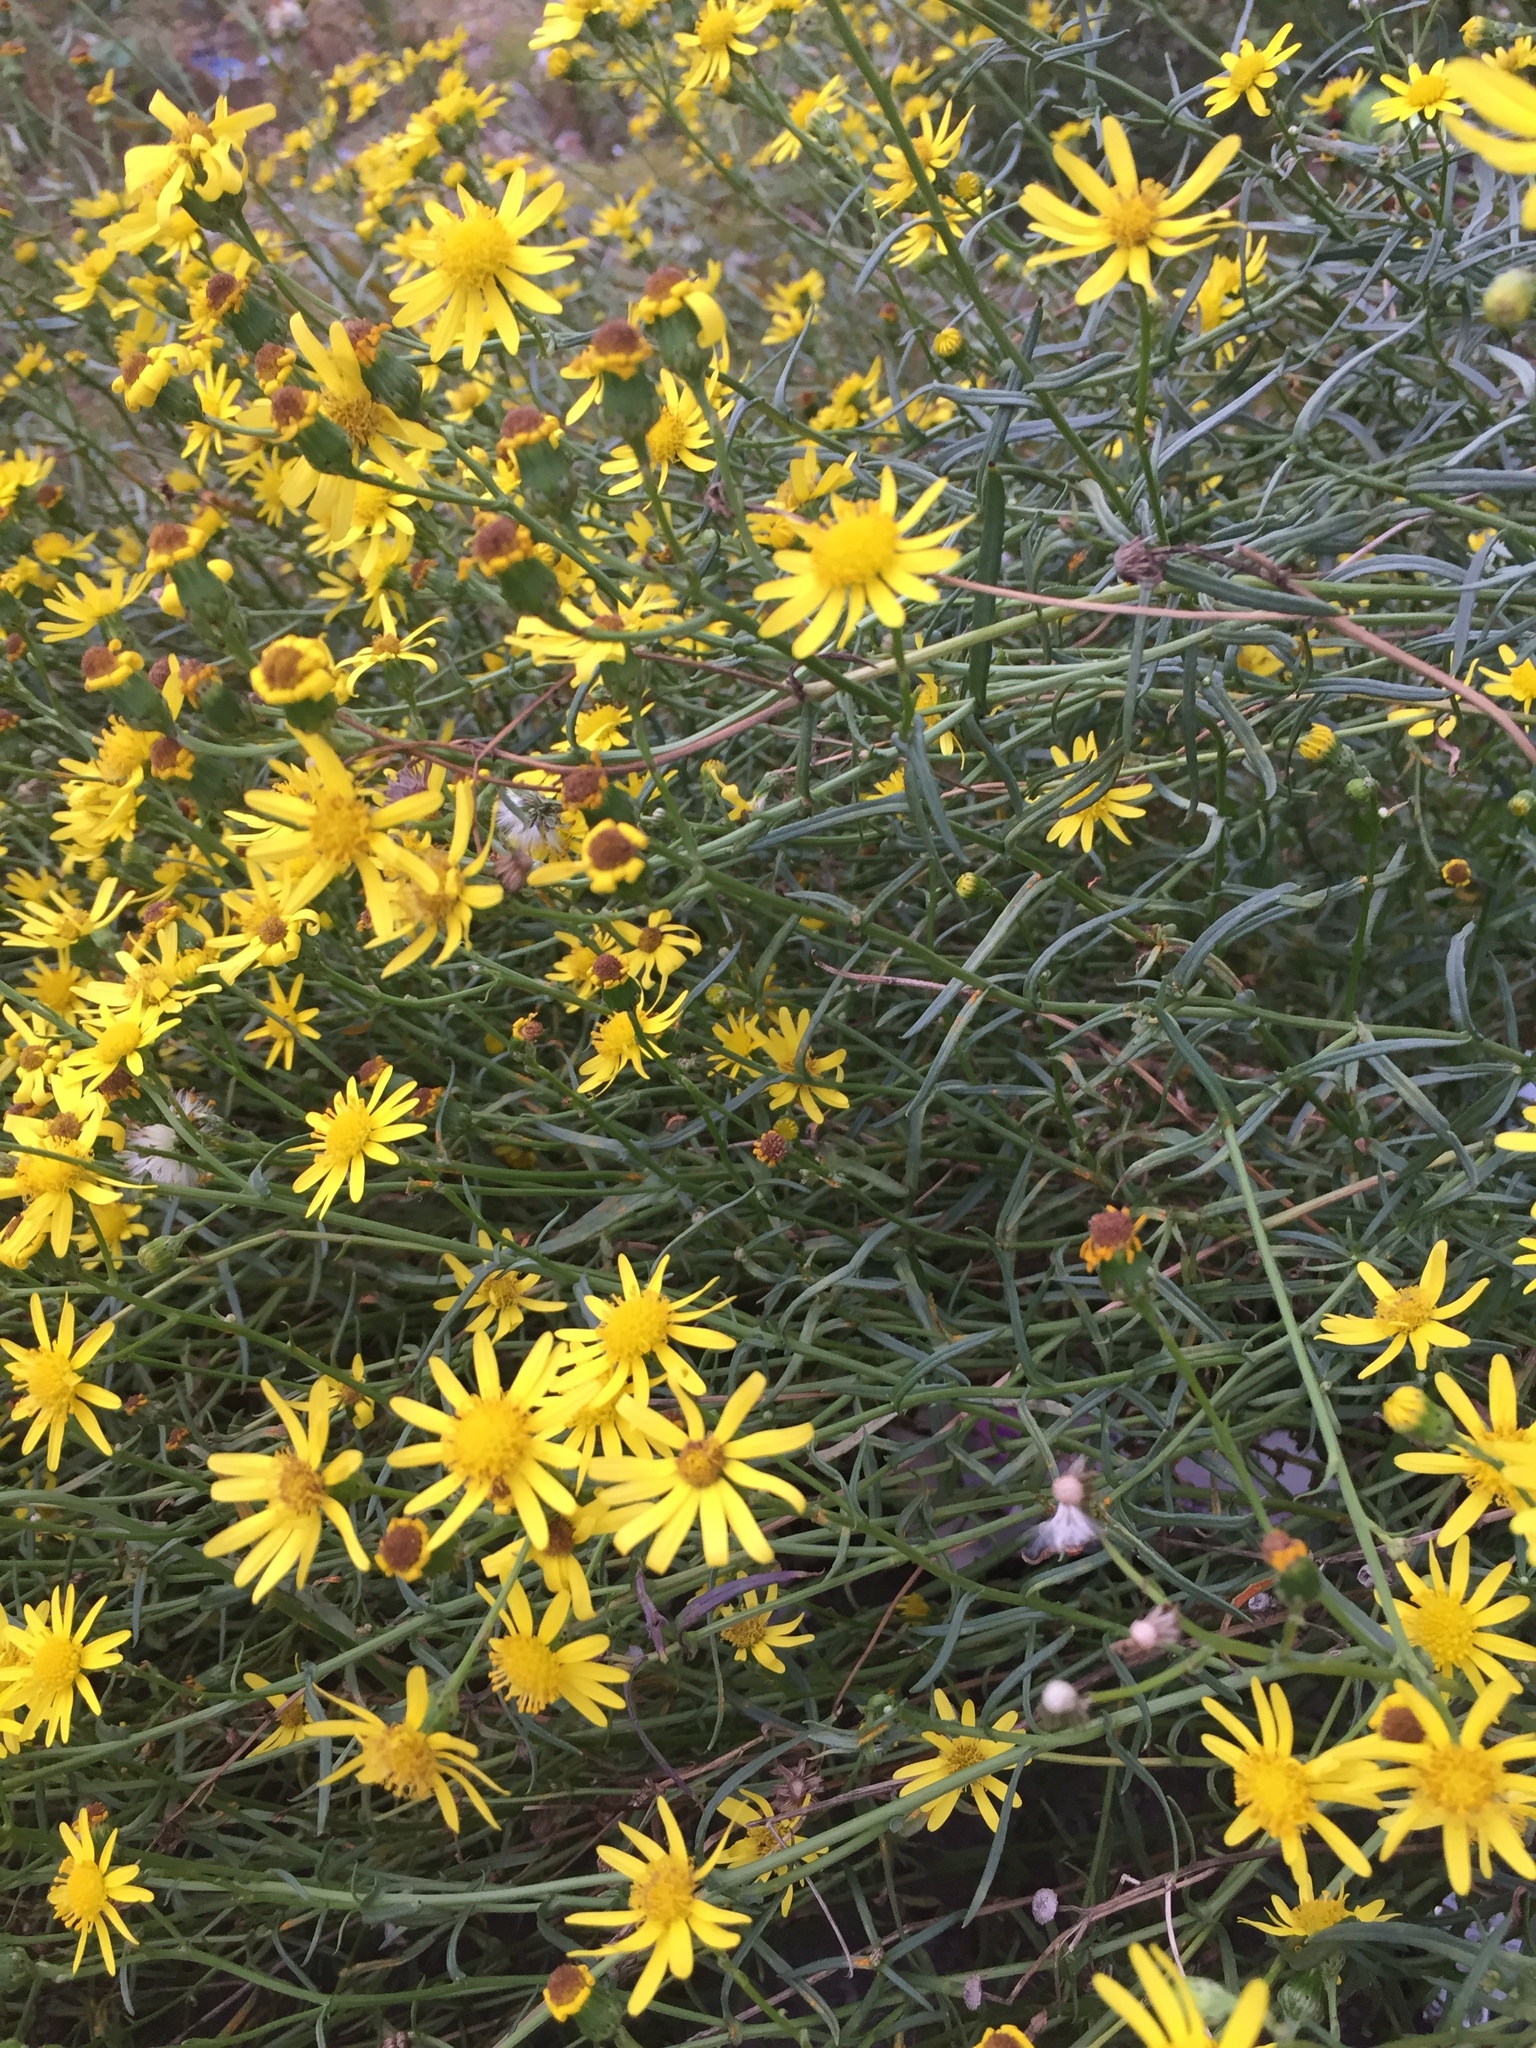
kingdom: Plantae
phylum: Tracheophyta
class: Magnoliopsida
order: Asterales
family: Asteraceae
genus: Senecio
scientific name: Senecio inaequidens
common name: Narrow-leaved ragwort
